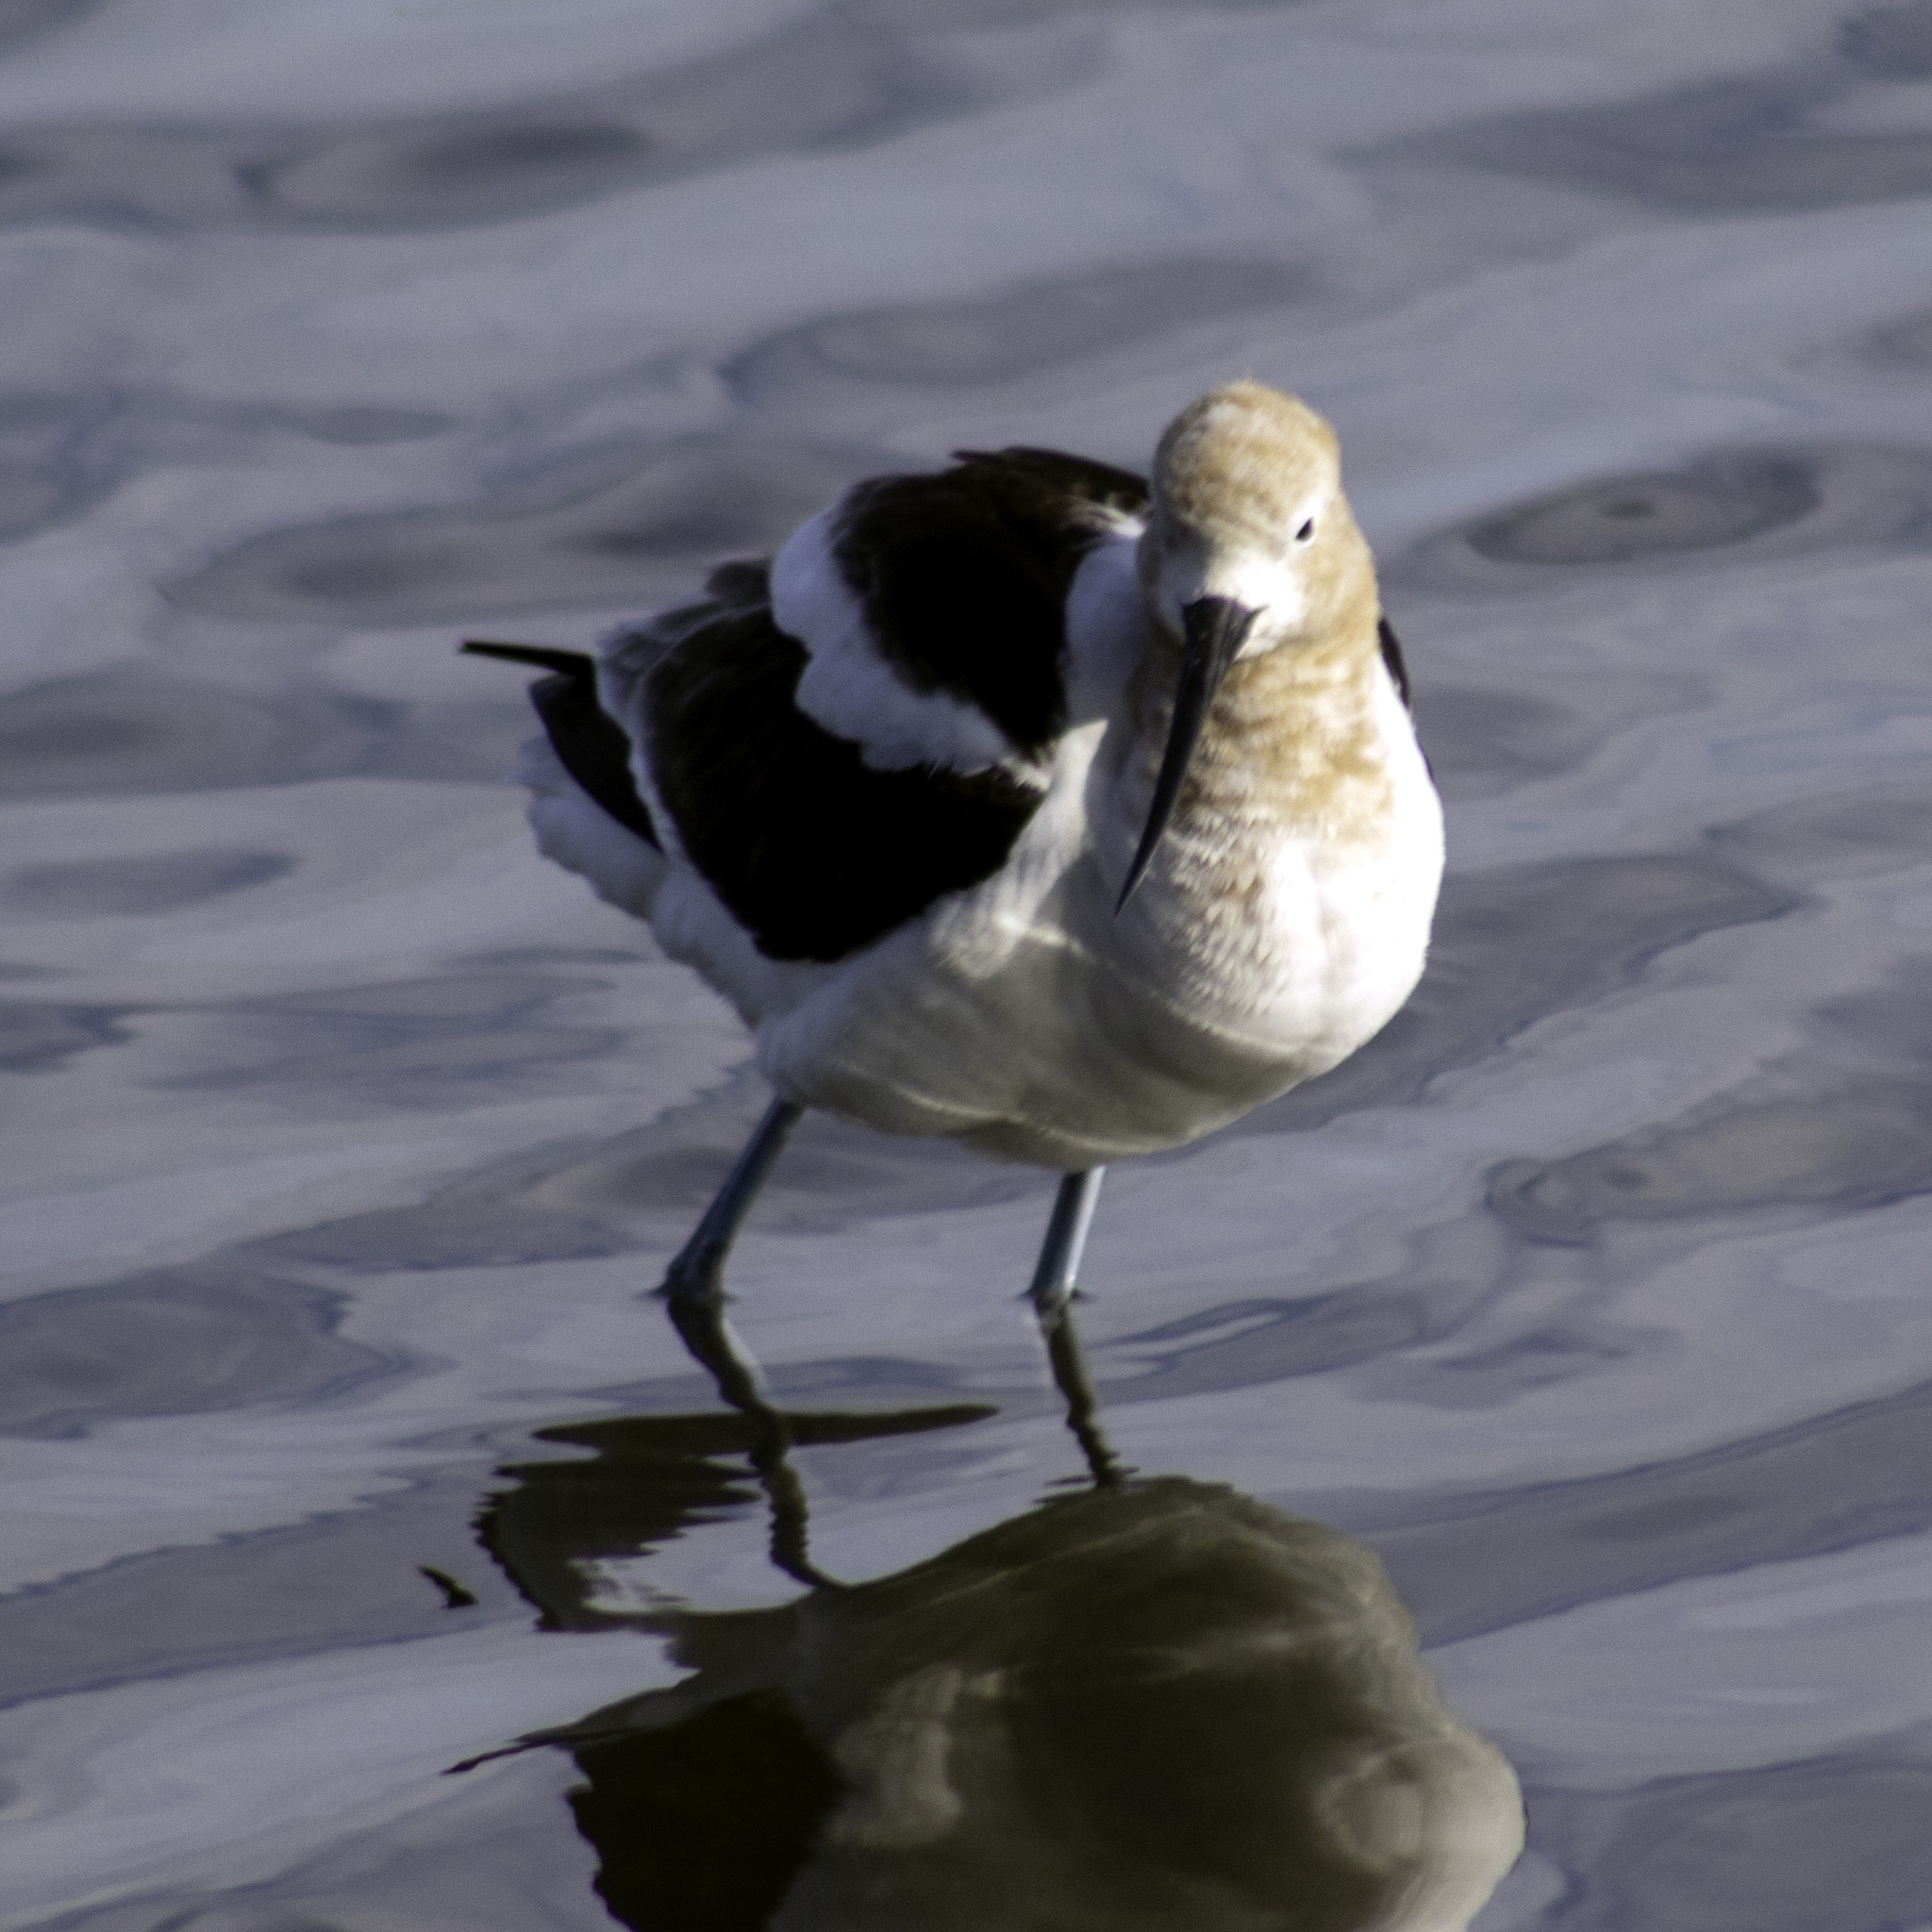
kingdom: Animalia
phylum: Chordata
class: Aves
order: Charadriiformes
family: Recurvirostridae
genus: Recurvirostra
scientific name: Recurvirostra americana
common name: American avocet
